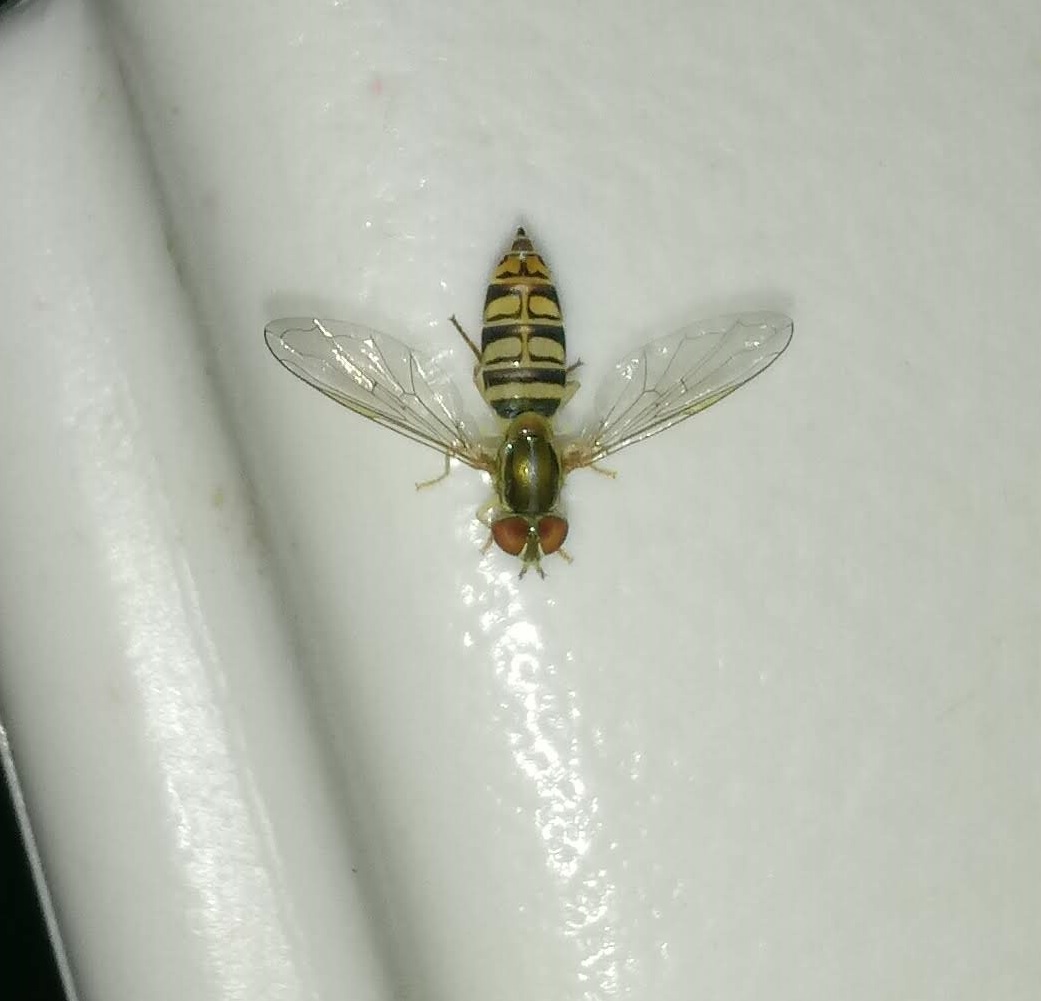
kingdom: Animalia
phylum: Arthropoda
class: Insecta
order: Diptera
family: Syrphidae
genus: Toxomerus
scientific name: Toxomerus politus
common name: Maize calligrapher
